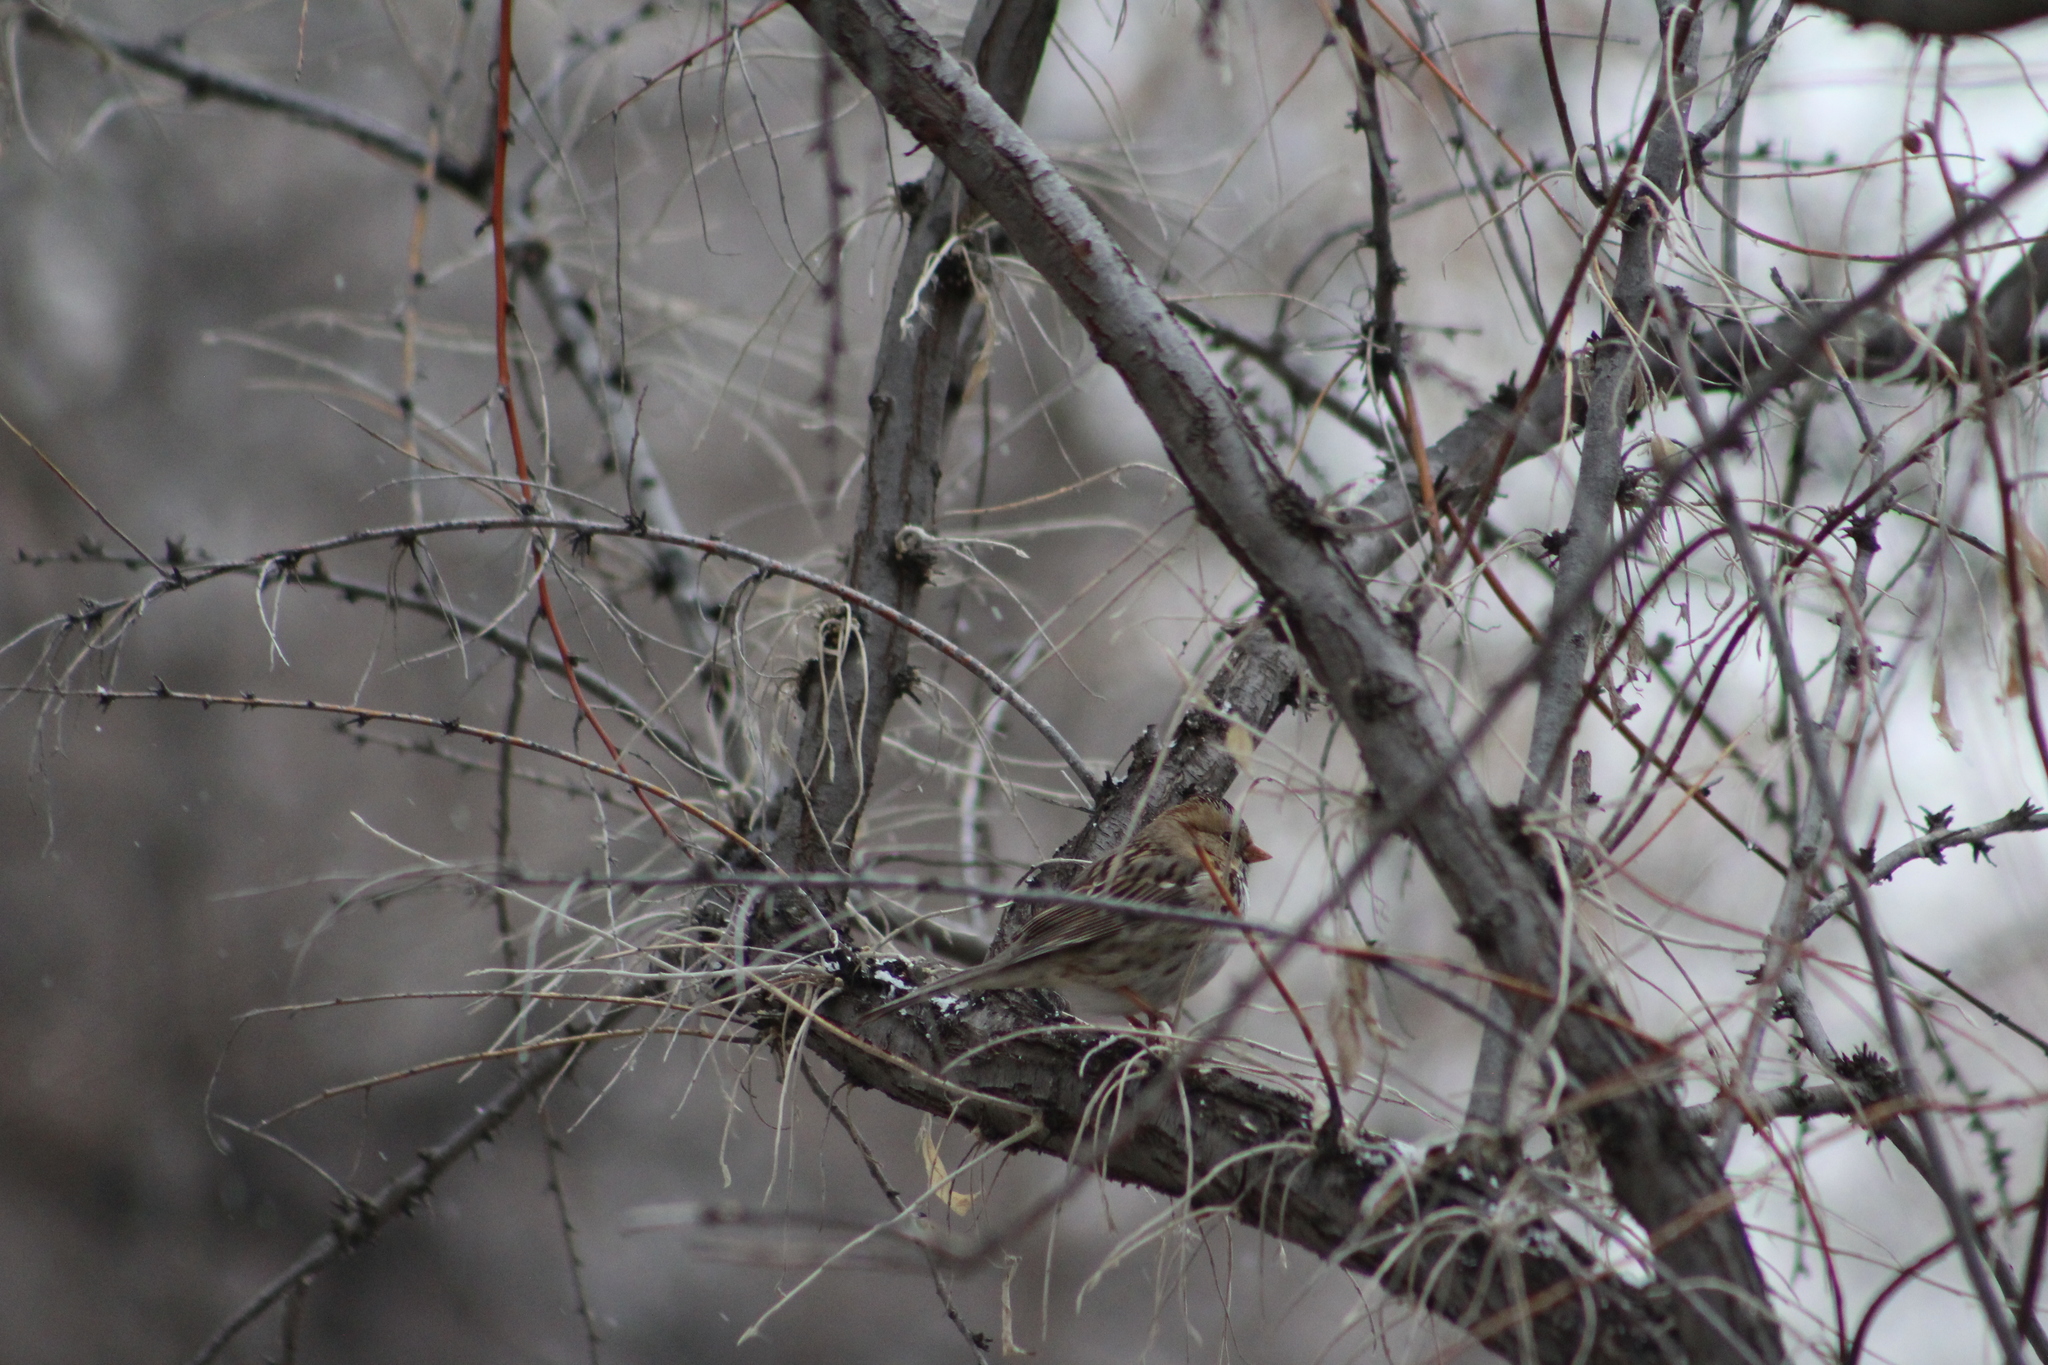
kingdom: Animalia
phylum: Chordata
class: Aves
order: Passeriformes
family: Passerellidae
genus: Zonotrichia
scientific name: Zonotrichia querula
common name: Harris's sparrow
